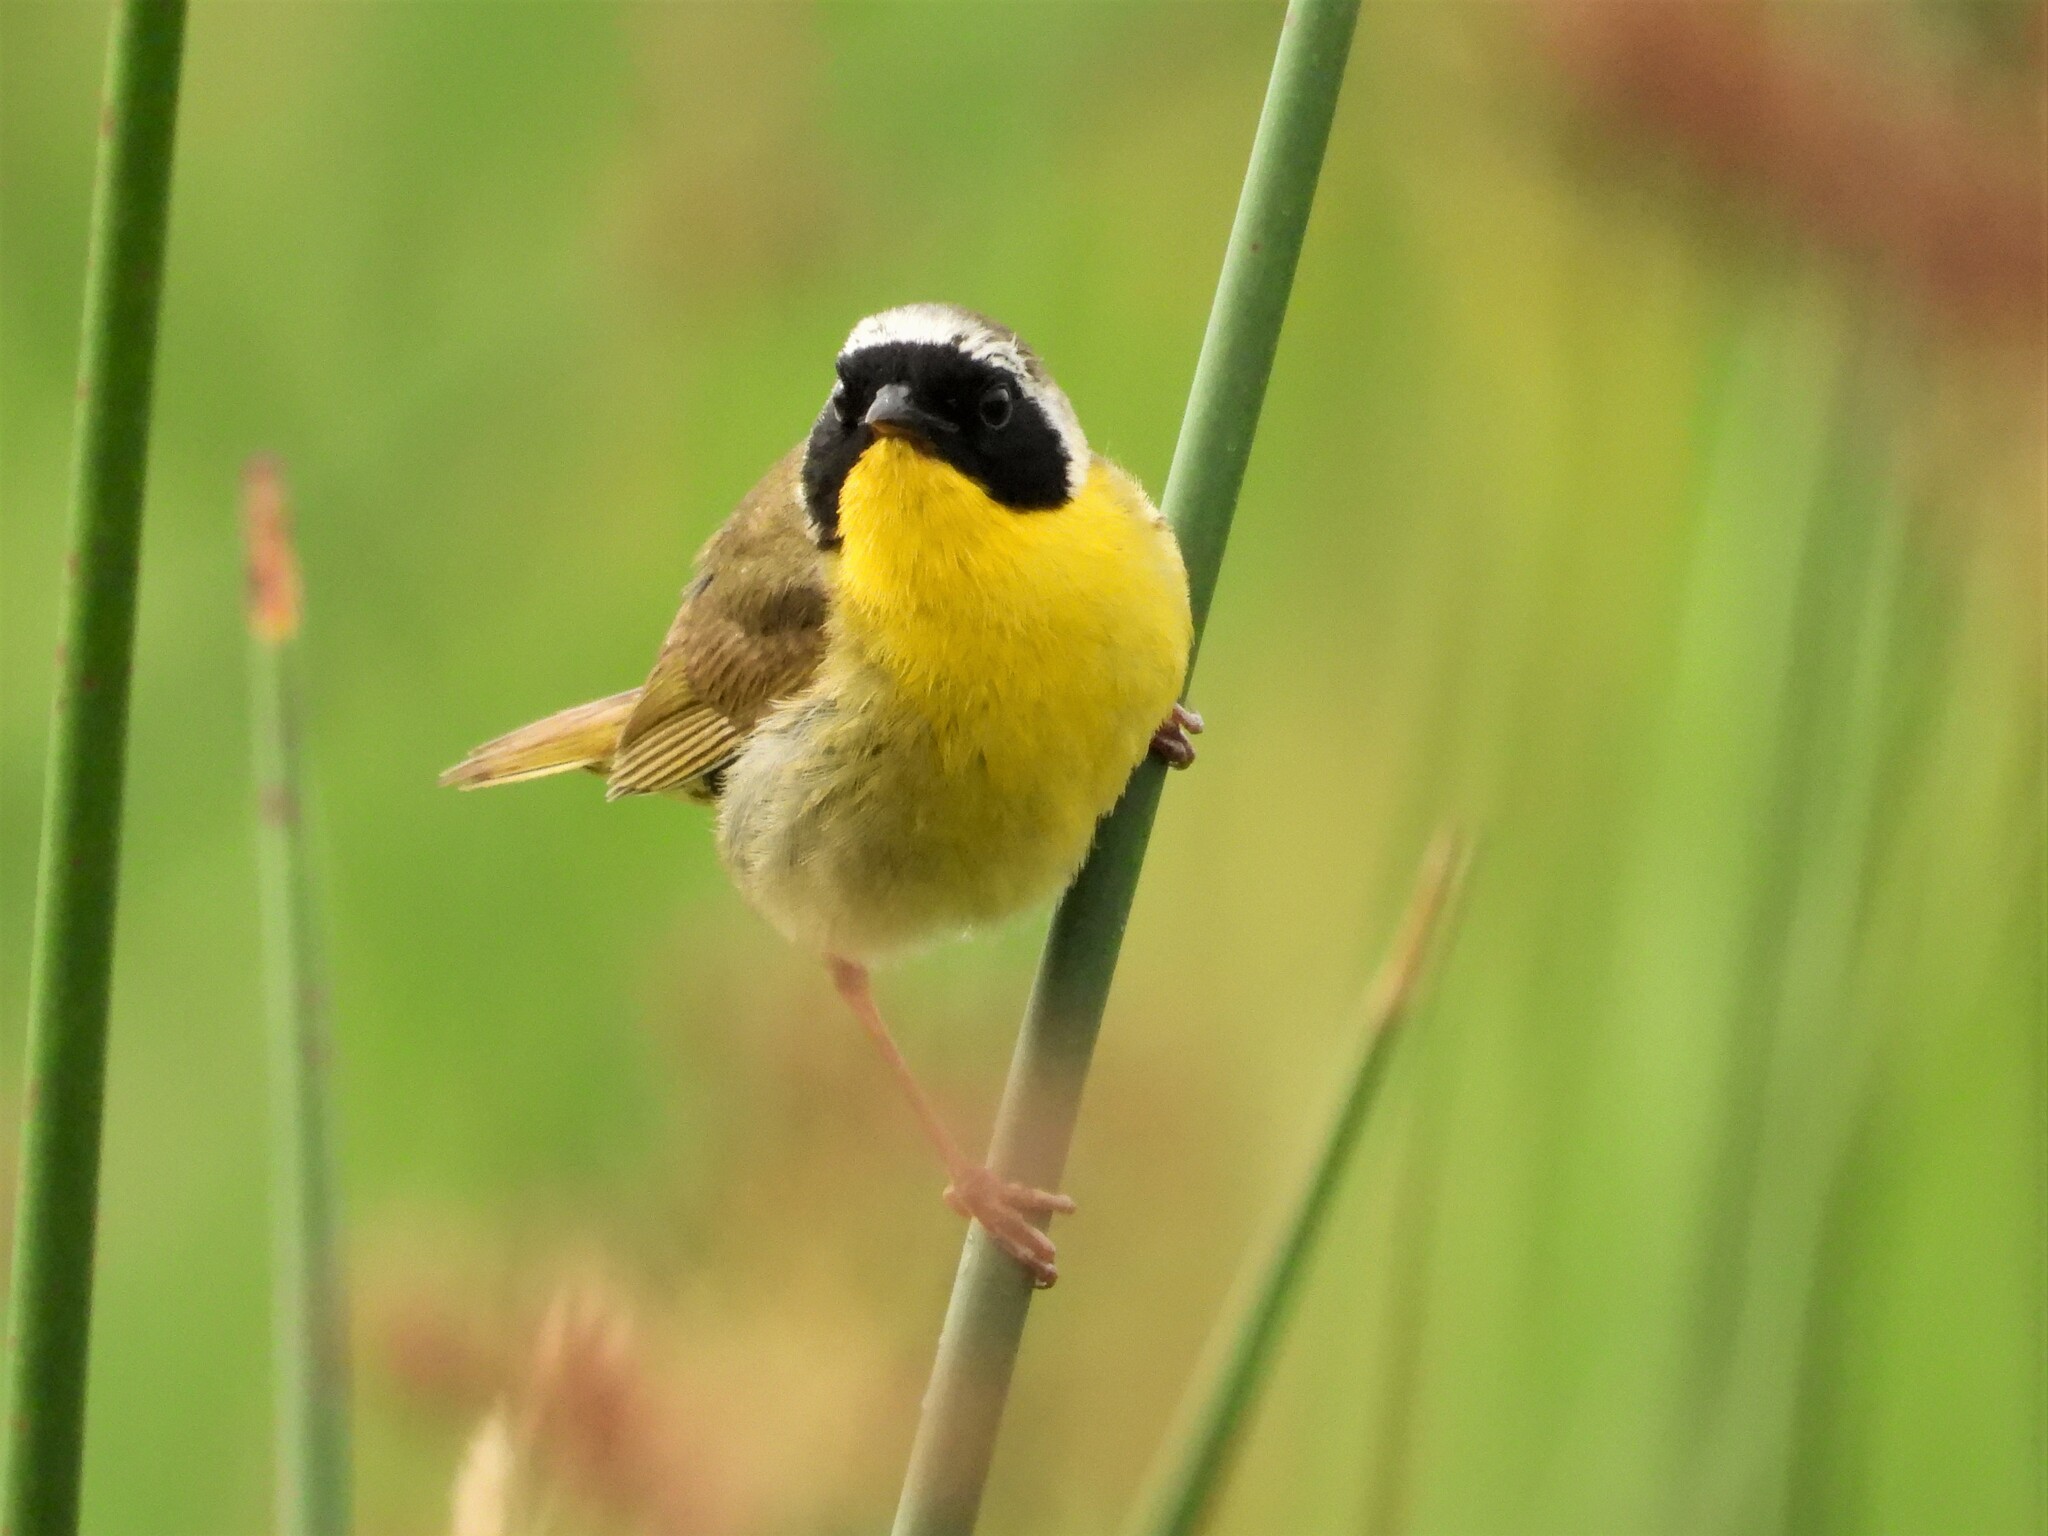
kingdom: Animalia
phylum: Chordata
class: Aves
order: Passeriformes
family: Parulidae
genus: Geothlypis
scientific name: Geothlypis trichas
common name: Common yellowthroat
